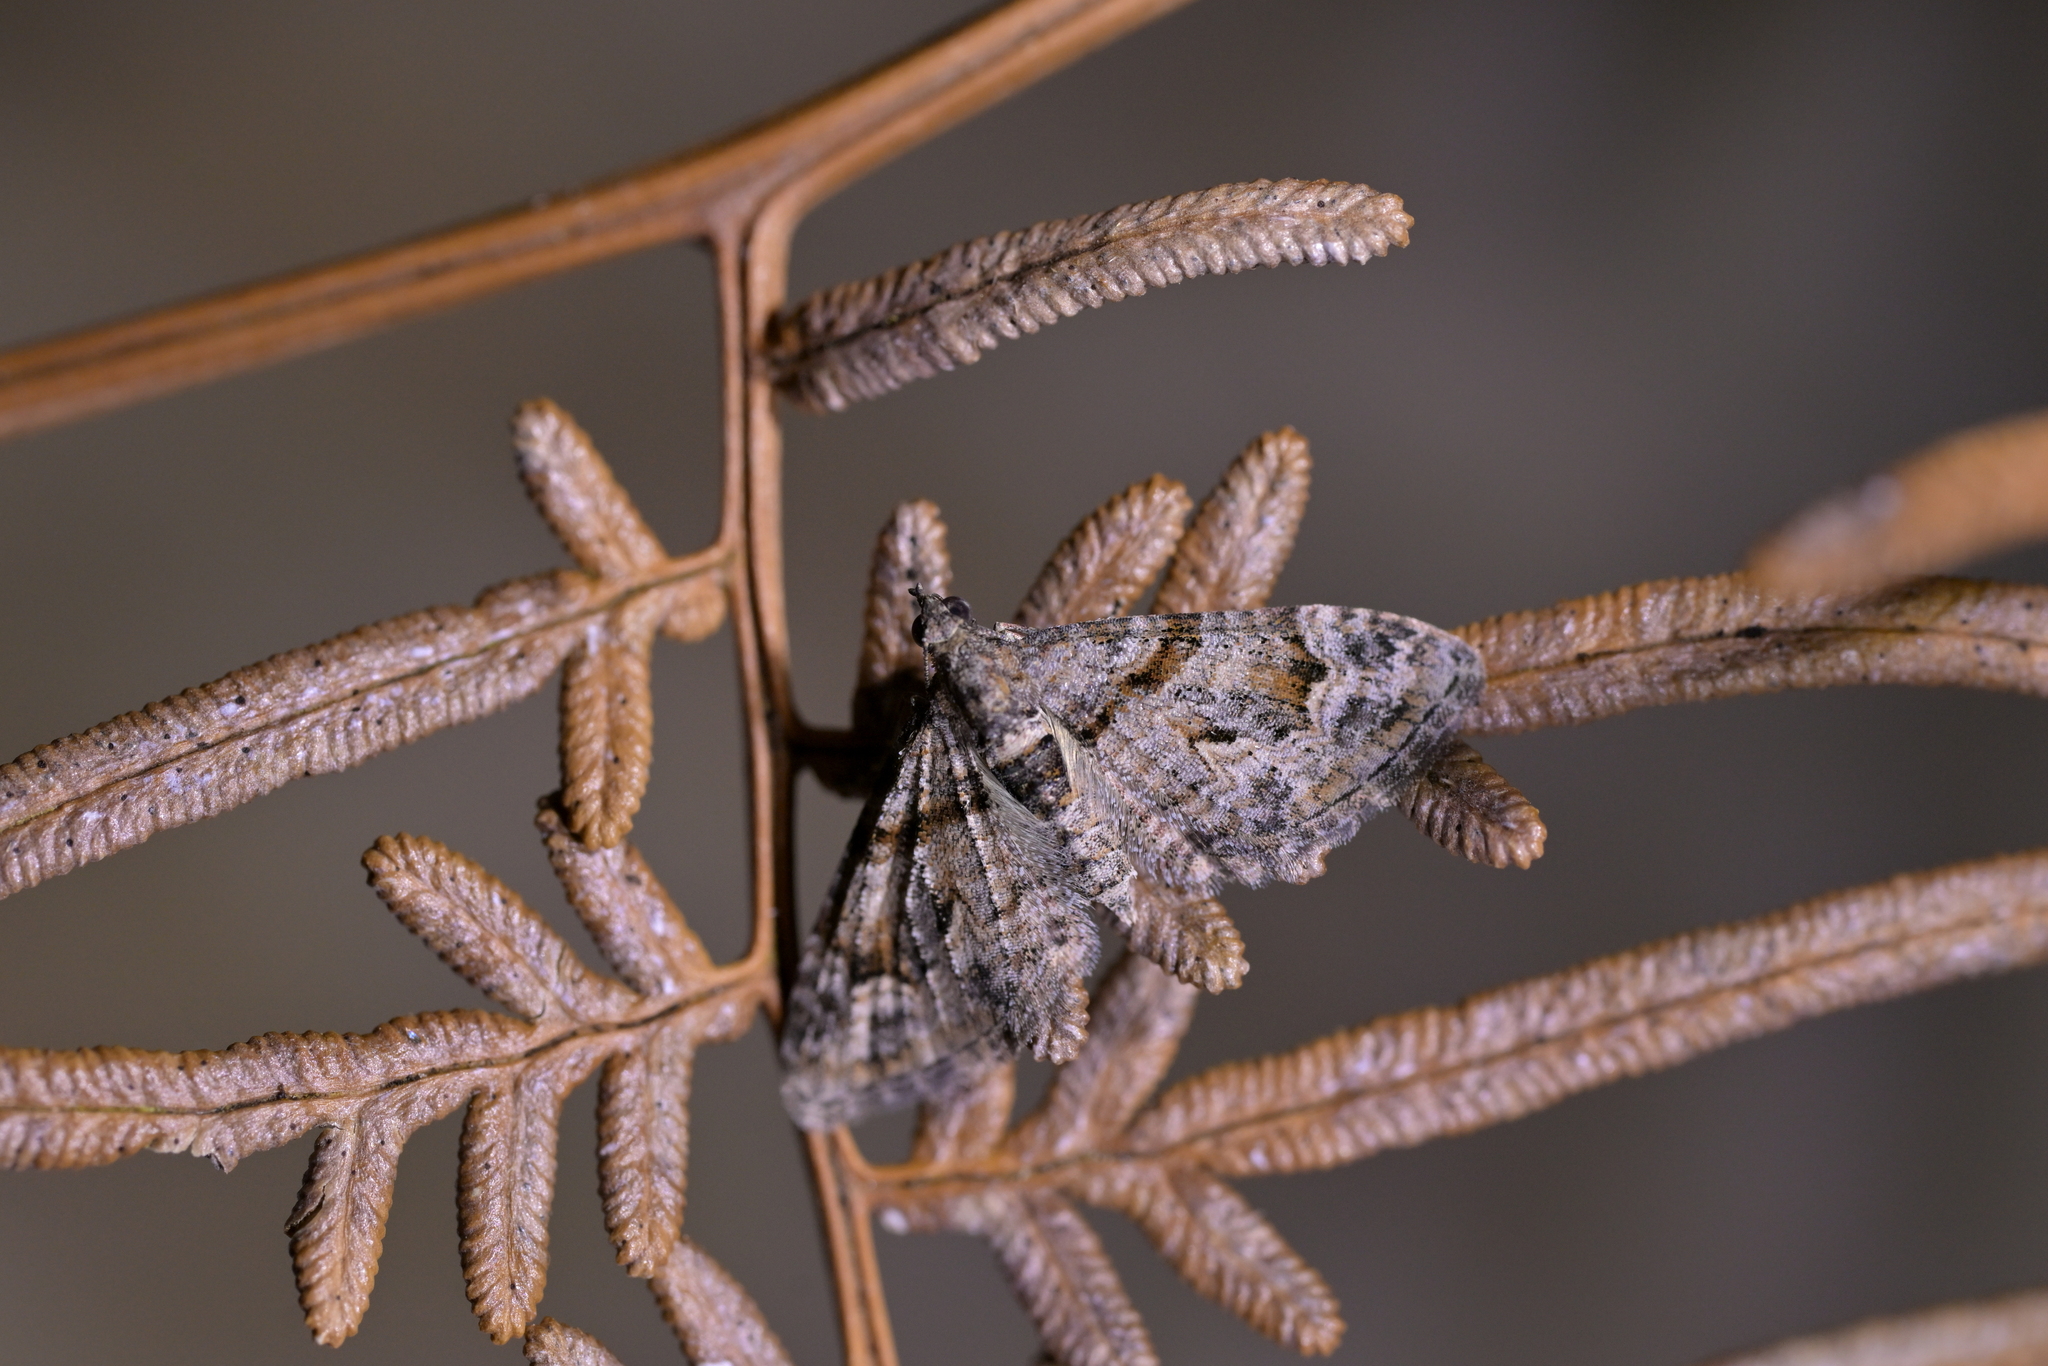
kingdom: Animalia
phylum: Arthropoda
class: Insecta
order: Lepidoptera
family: Geometridae
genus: Phrissogonus
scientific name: Phrissogonus laticostata
